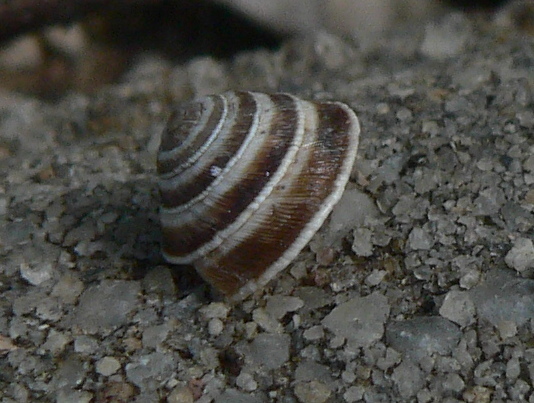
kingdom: Animalia
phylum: Mollusca
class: Gastropoda
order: Stylommatophora
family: Geomitridae
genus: Trochoidea
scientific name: Trochoidea elegans
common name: Elegant helicellid
